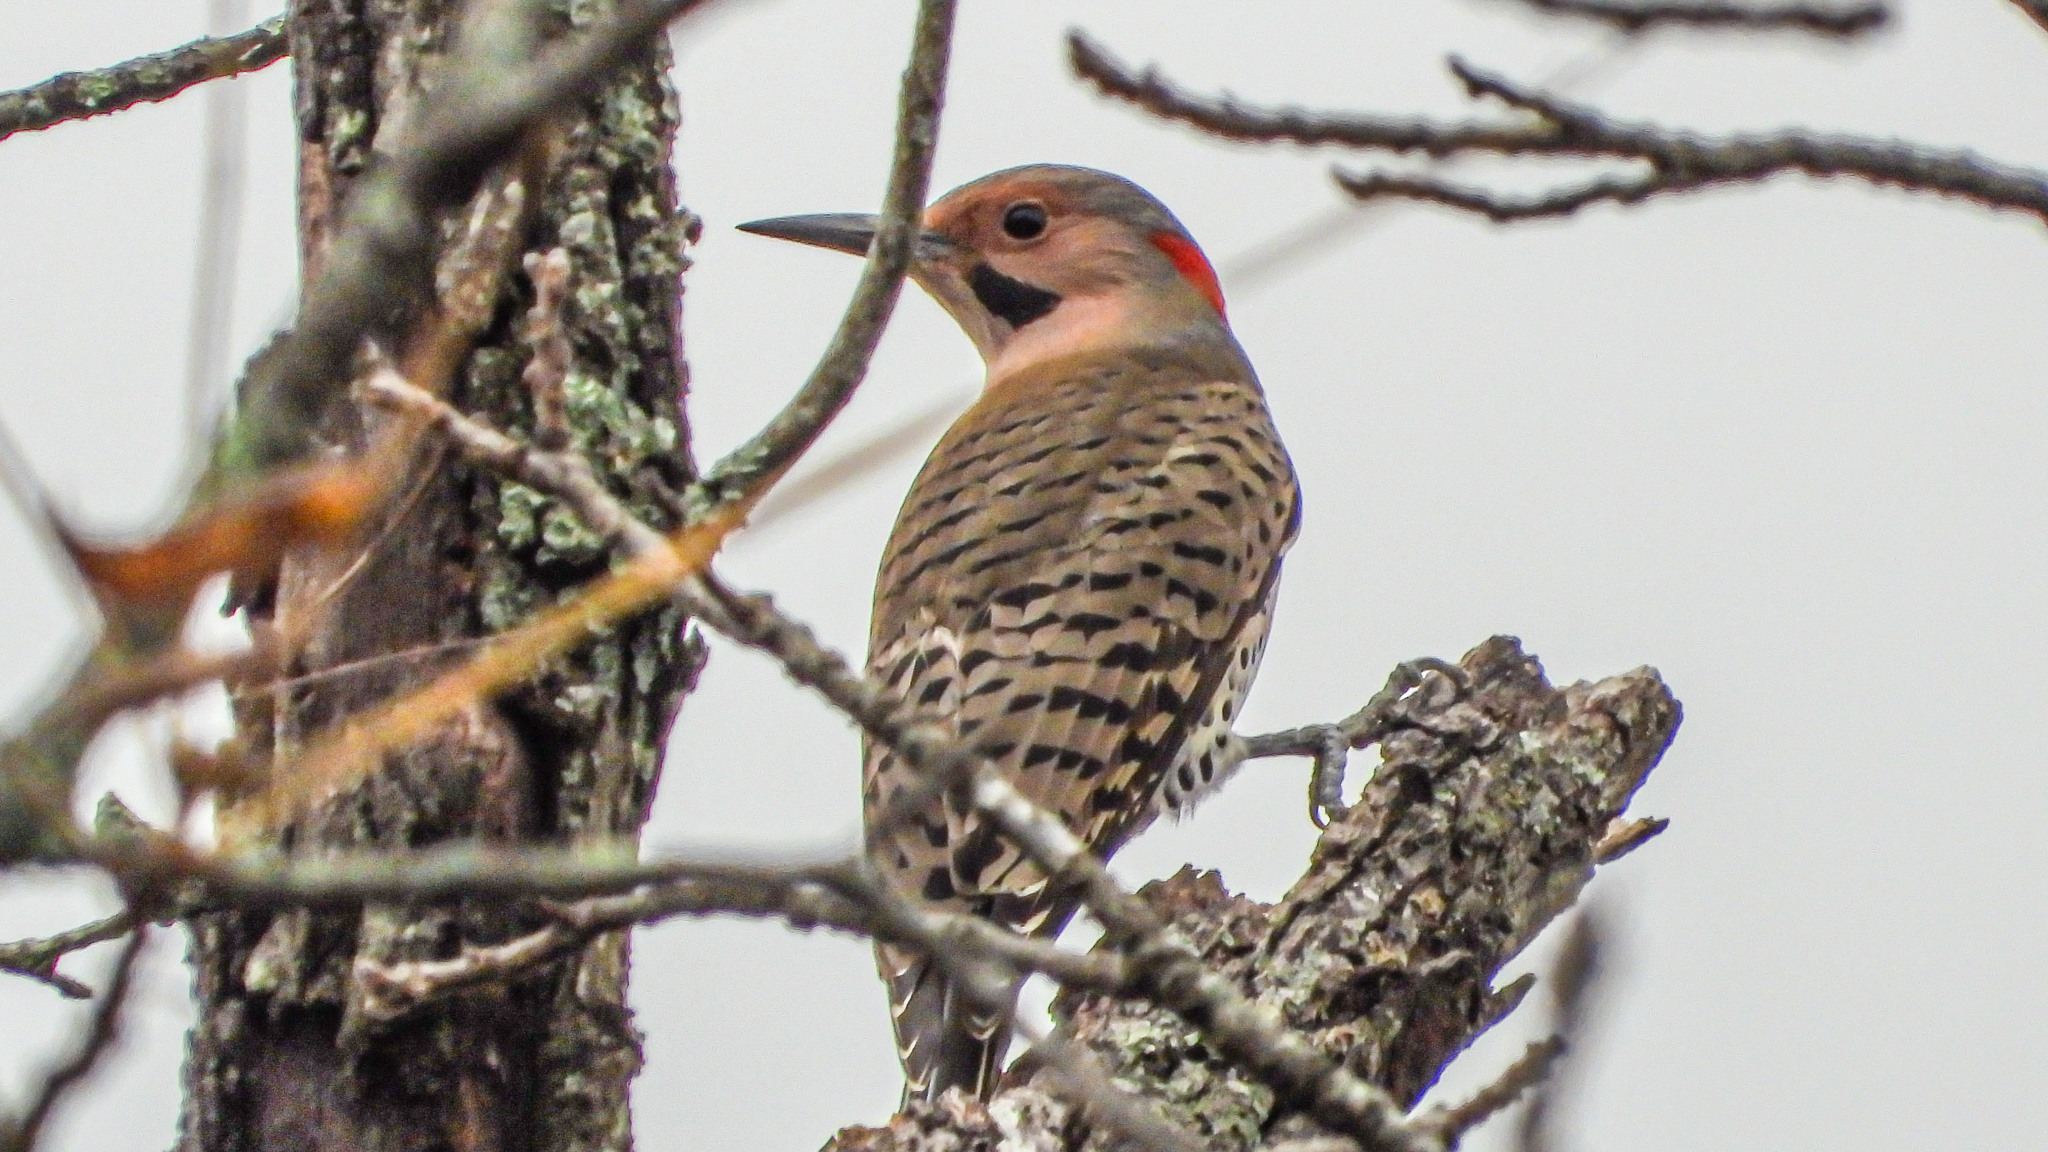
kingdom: Animalia
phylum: Chordata
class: Aves
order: Piciformes
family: Picidae
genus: Colaptes
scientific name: Colaptes auratus
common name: Northern flicker
